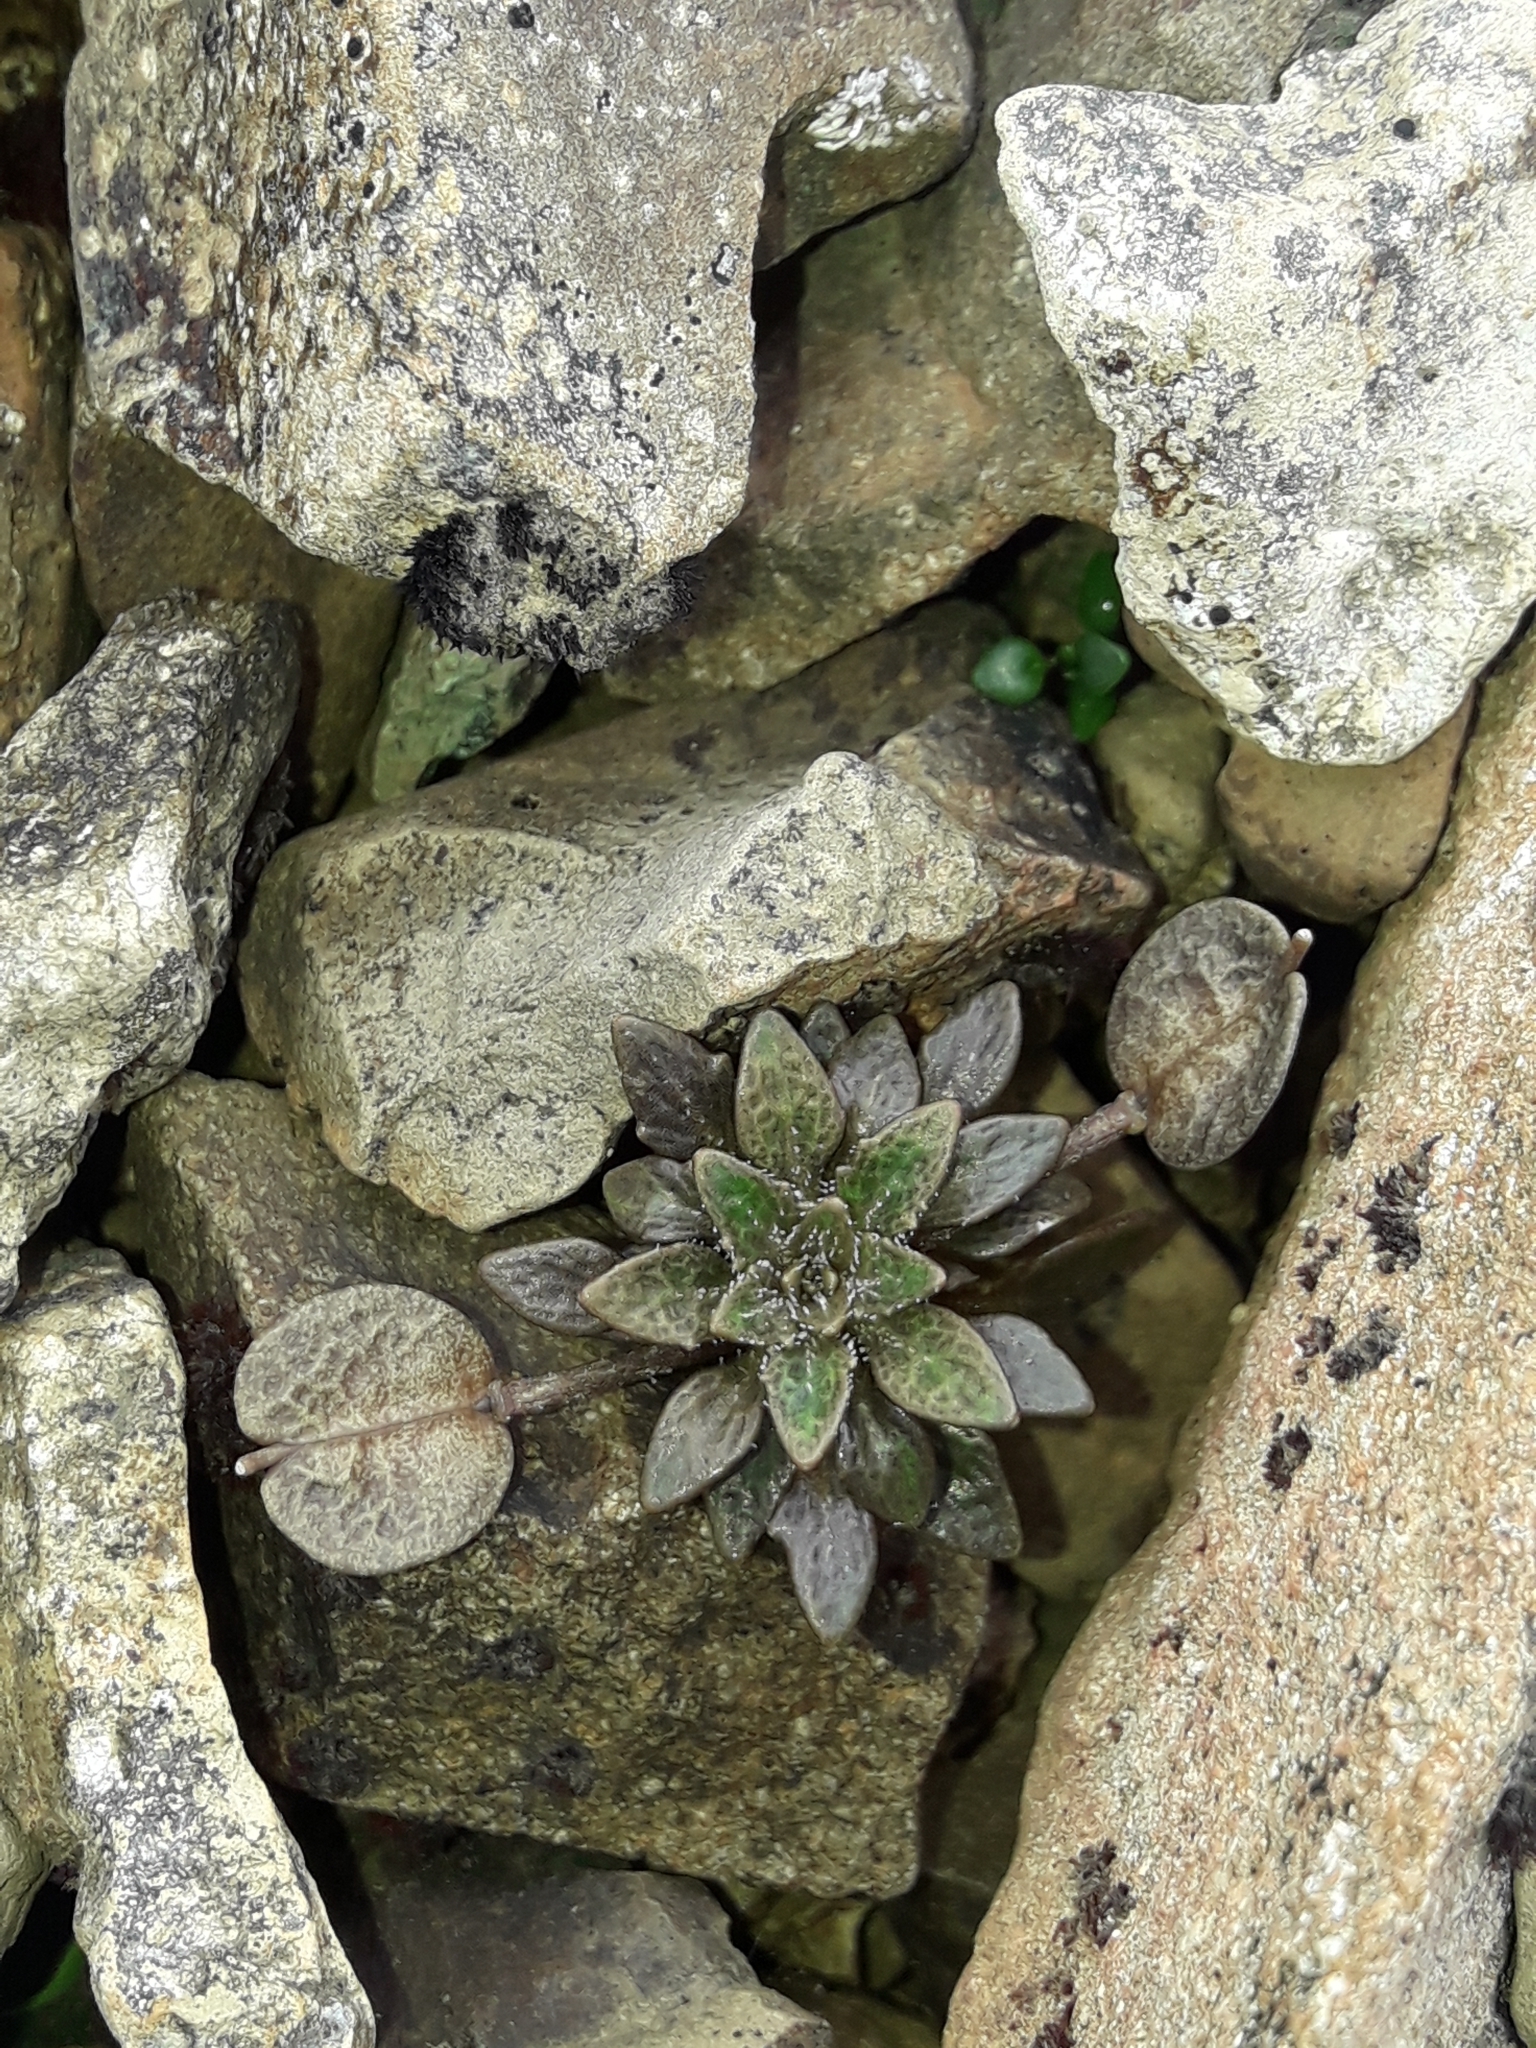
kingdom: Plantae
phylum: Tracheophyta
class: Magnoliopsida
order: Brassicales
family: Brassicaceae
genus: Notothlaspi
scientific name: Notothlaspi rosulatum
